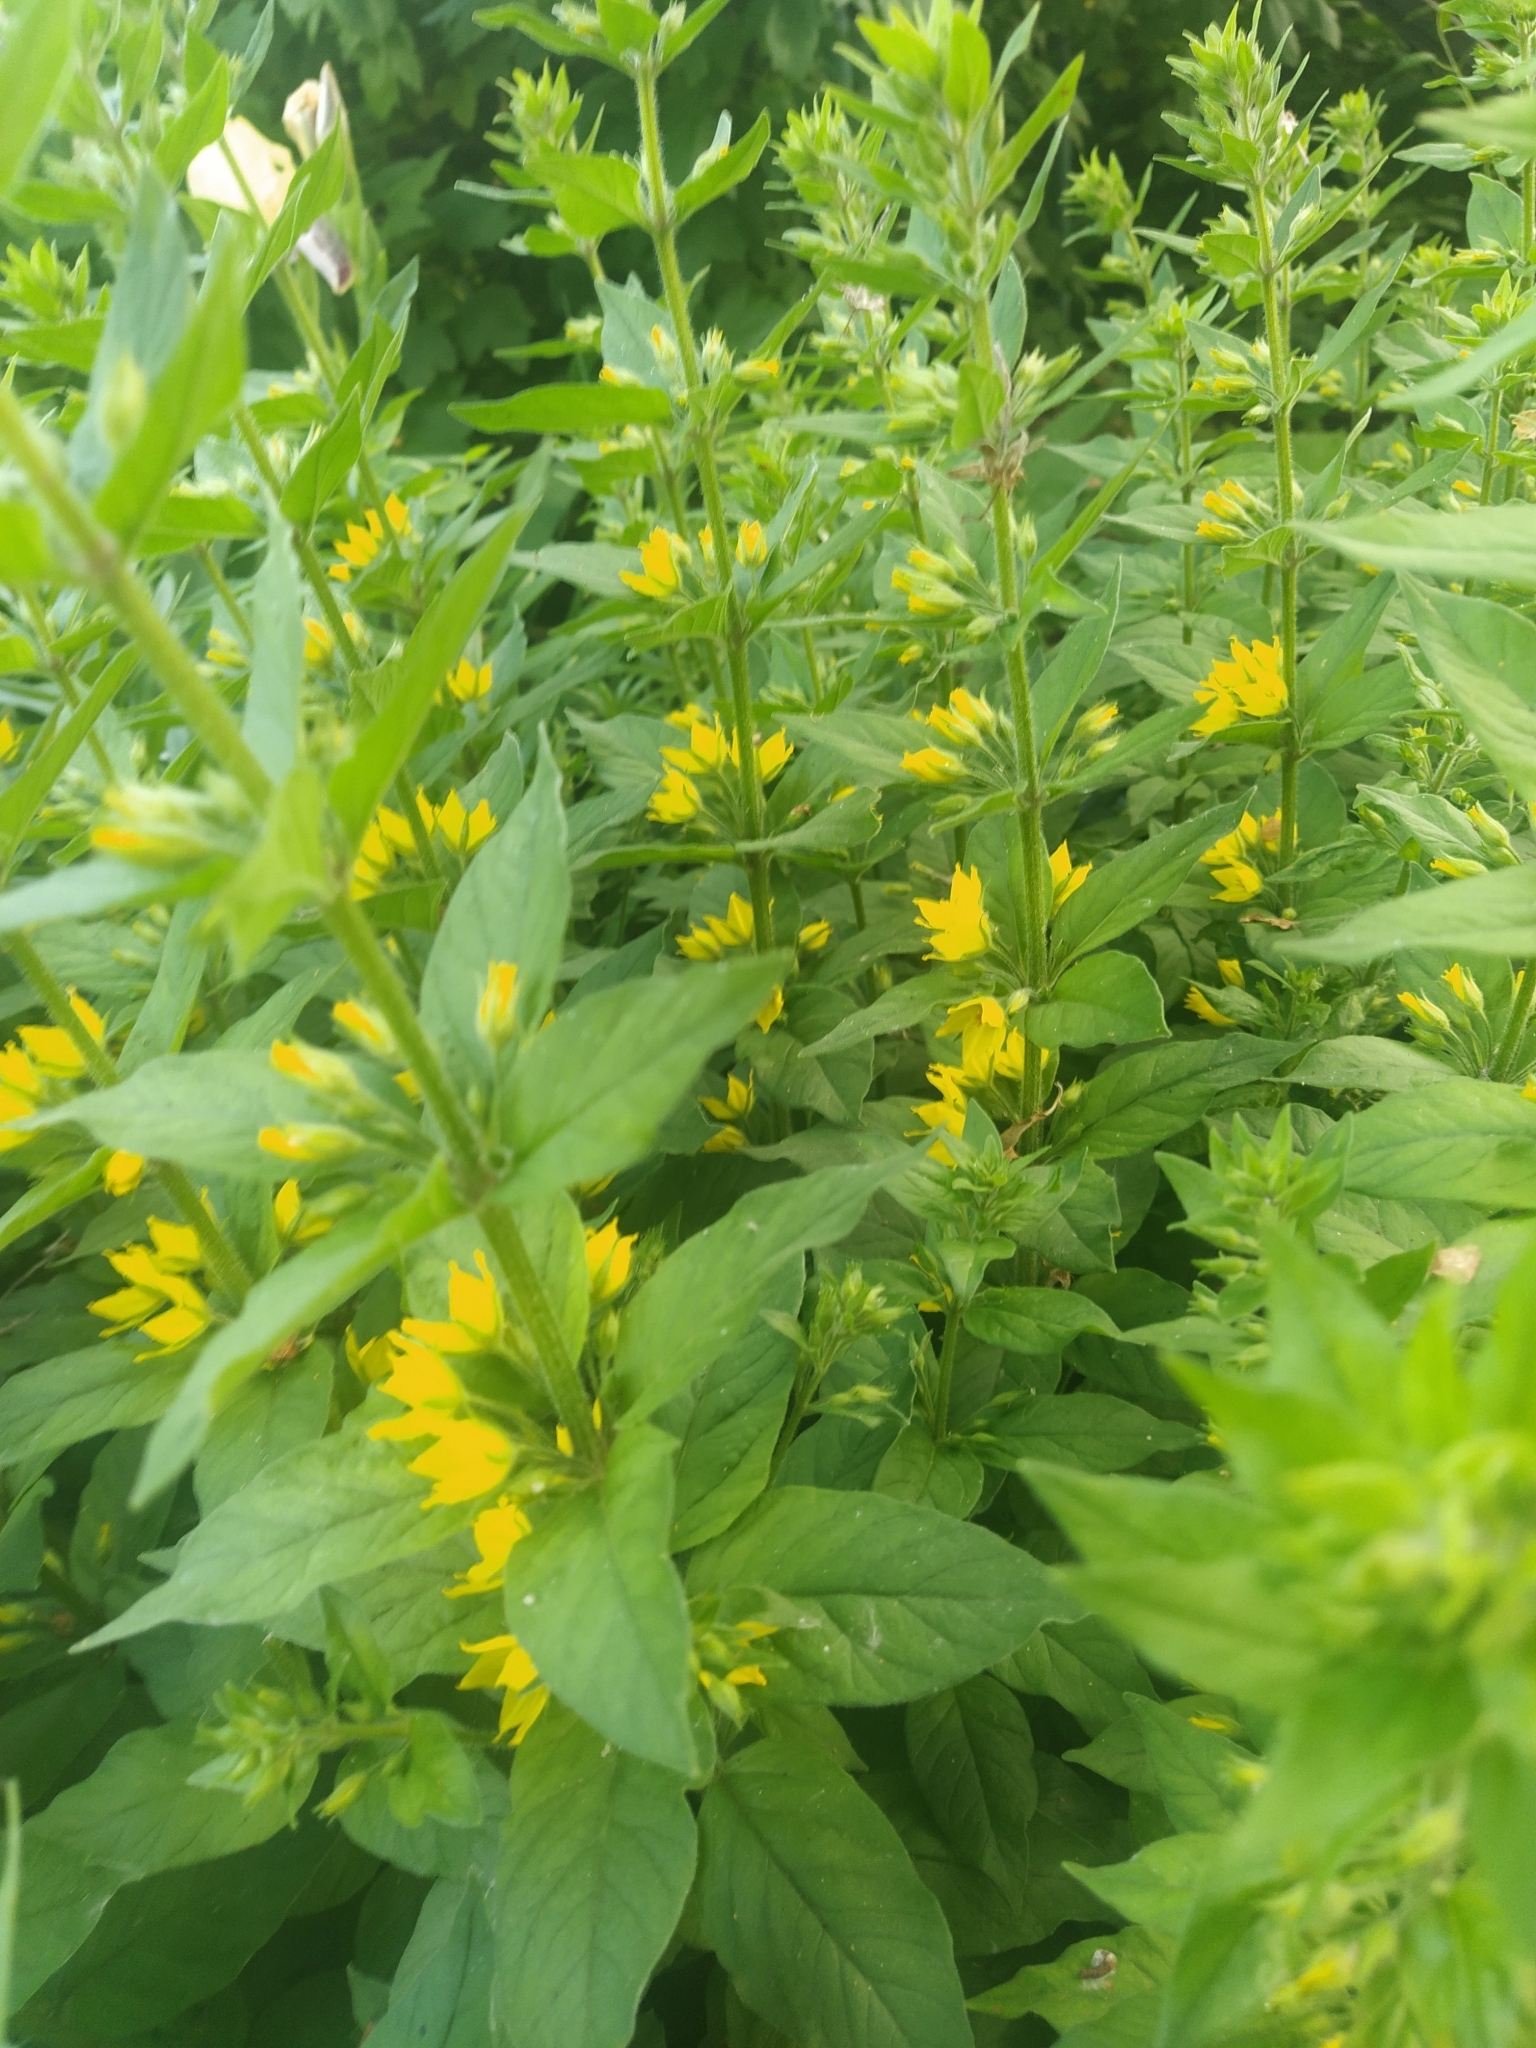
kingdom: Plantae
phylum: Tracheophyta
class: Magnoliopsida
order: Ericales
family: Primulaceae
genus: Lysimachia
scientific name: Lysimachia punctata
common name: Dotted loosestrife
